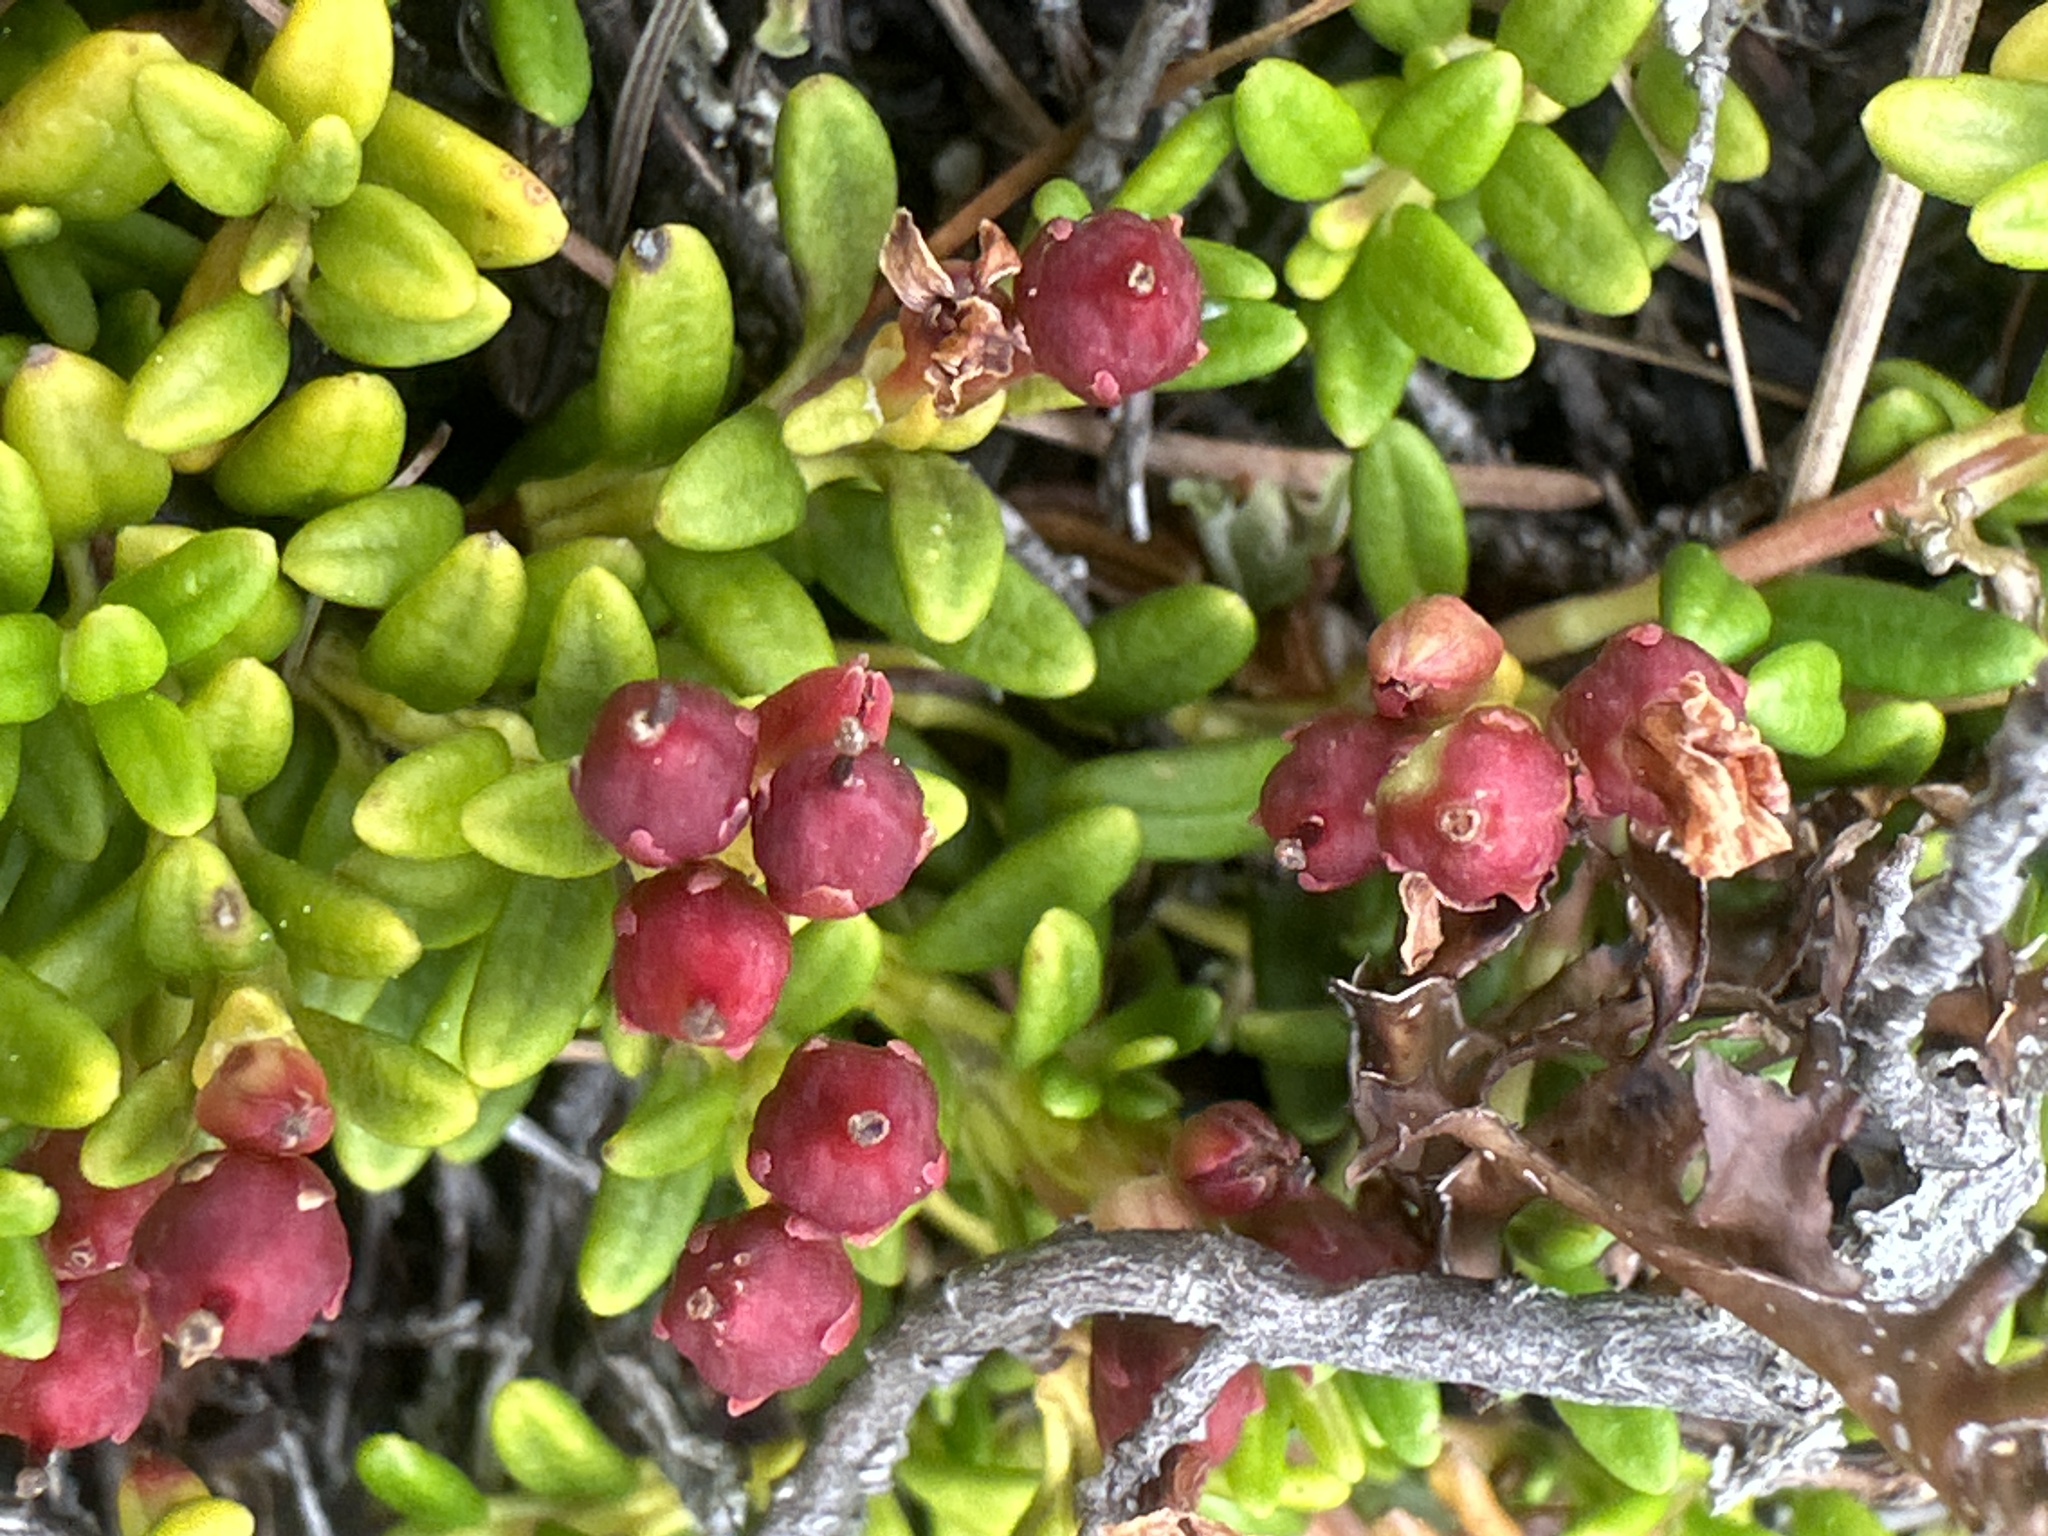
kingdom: Plantae
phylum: Tracheophyta
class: Magnoliopsida
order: Ericales
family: Ericaceae
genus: Kalmia
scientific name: Kalmia procumbens
